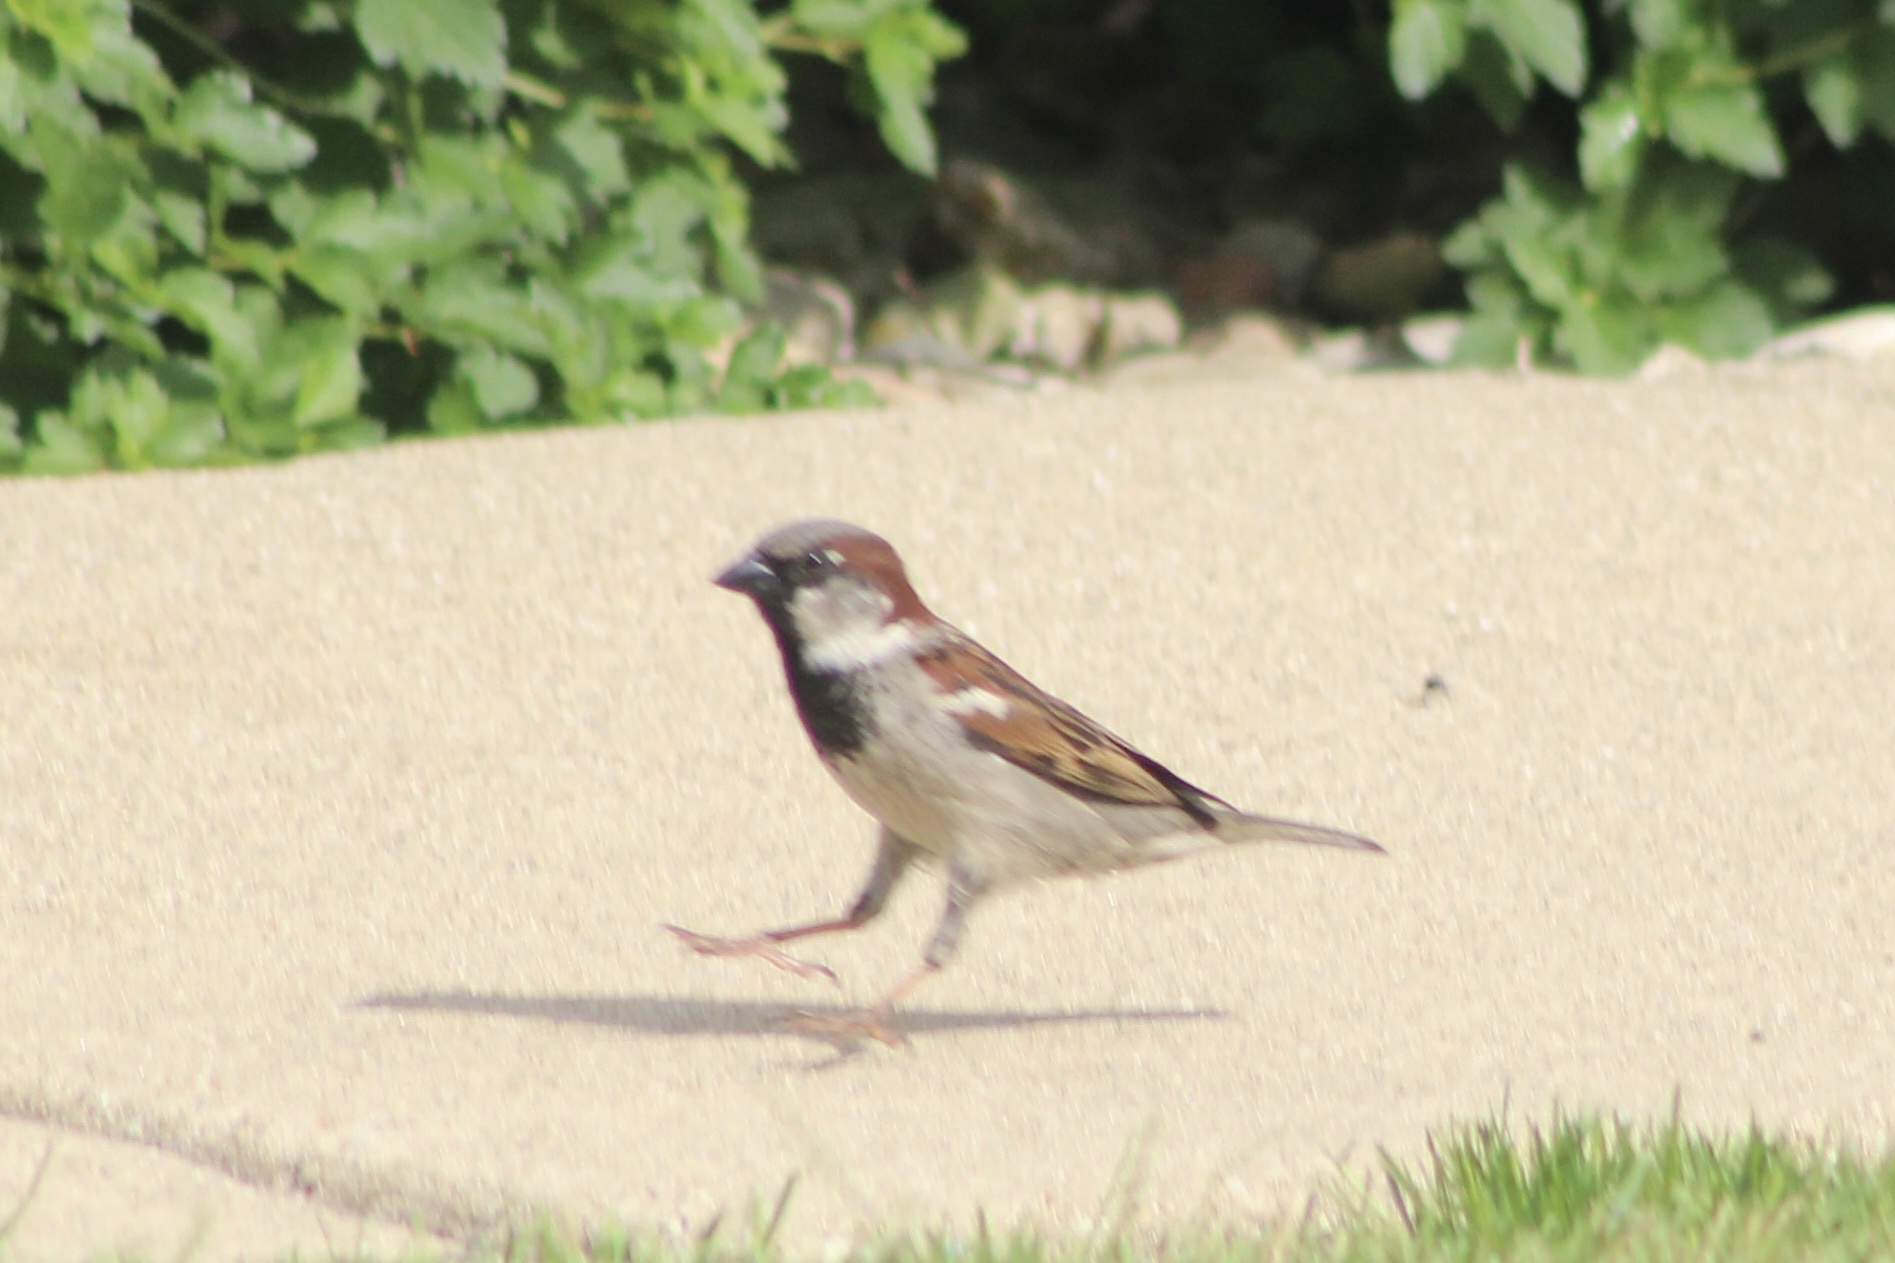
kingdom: Animalia
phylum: Chordata
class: Aves
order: Passeriformes
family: Passeridae
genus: Passer
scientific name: Passer domesticus
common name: House sparrow
